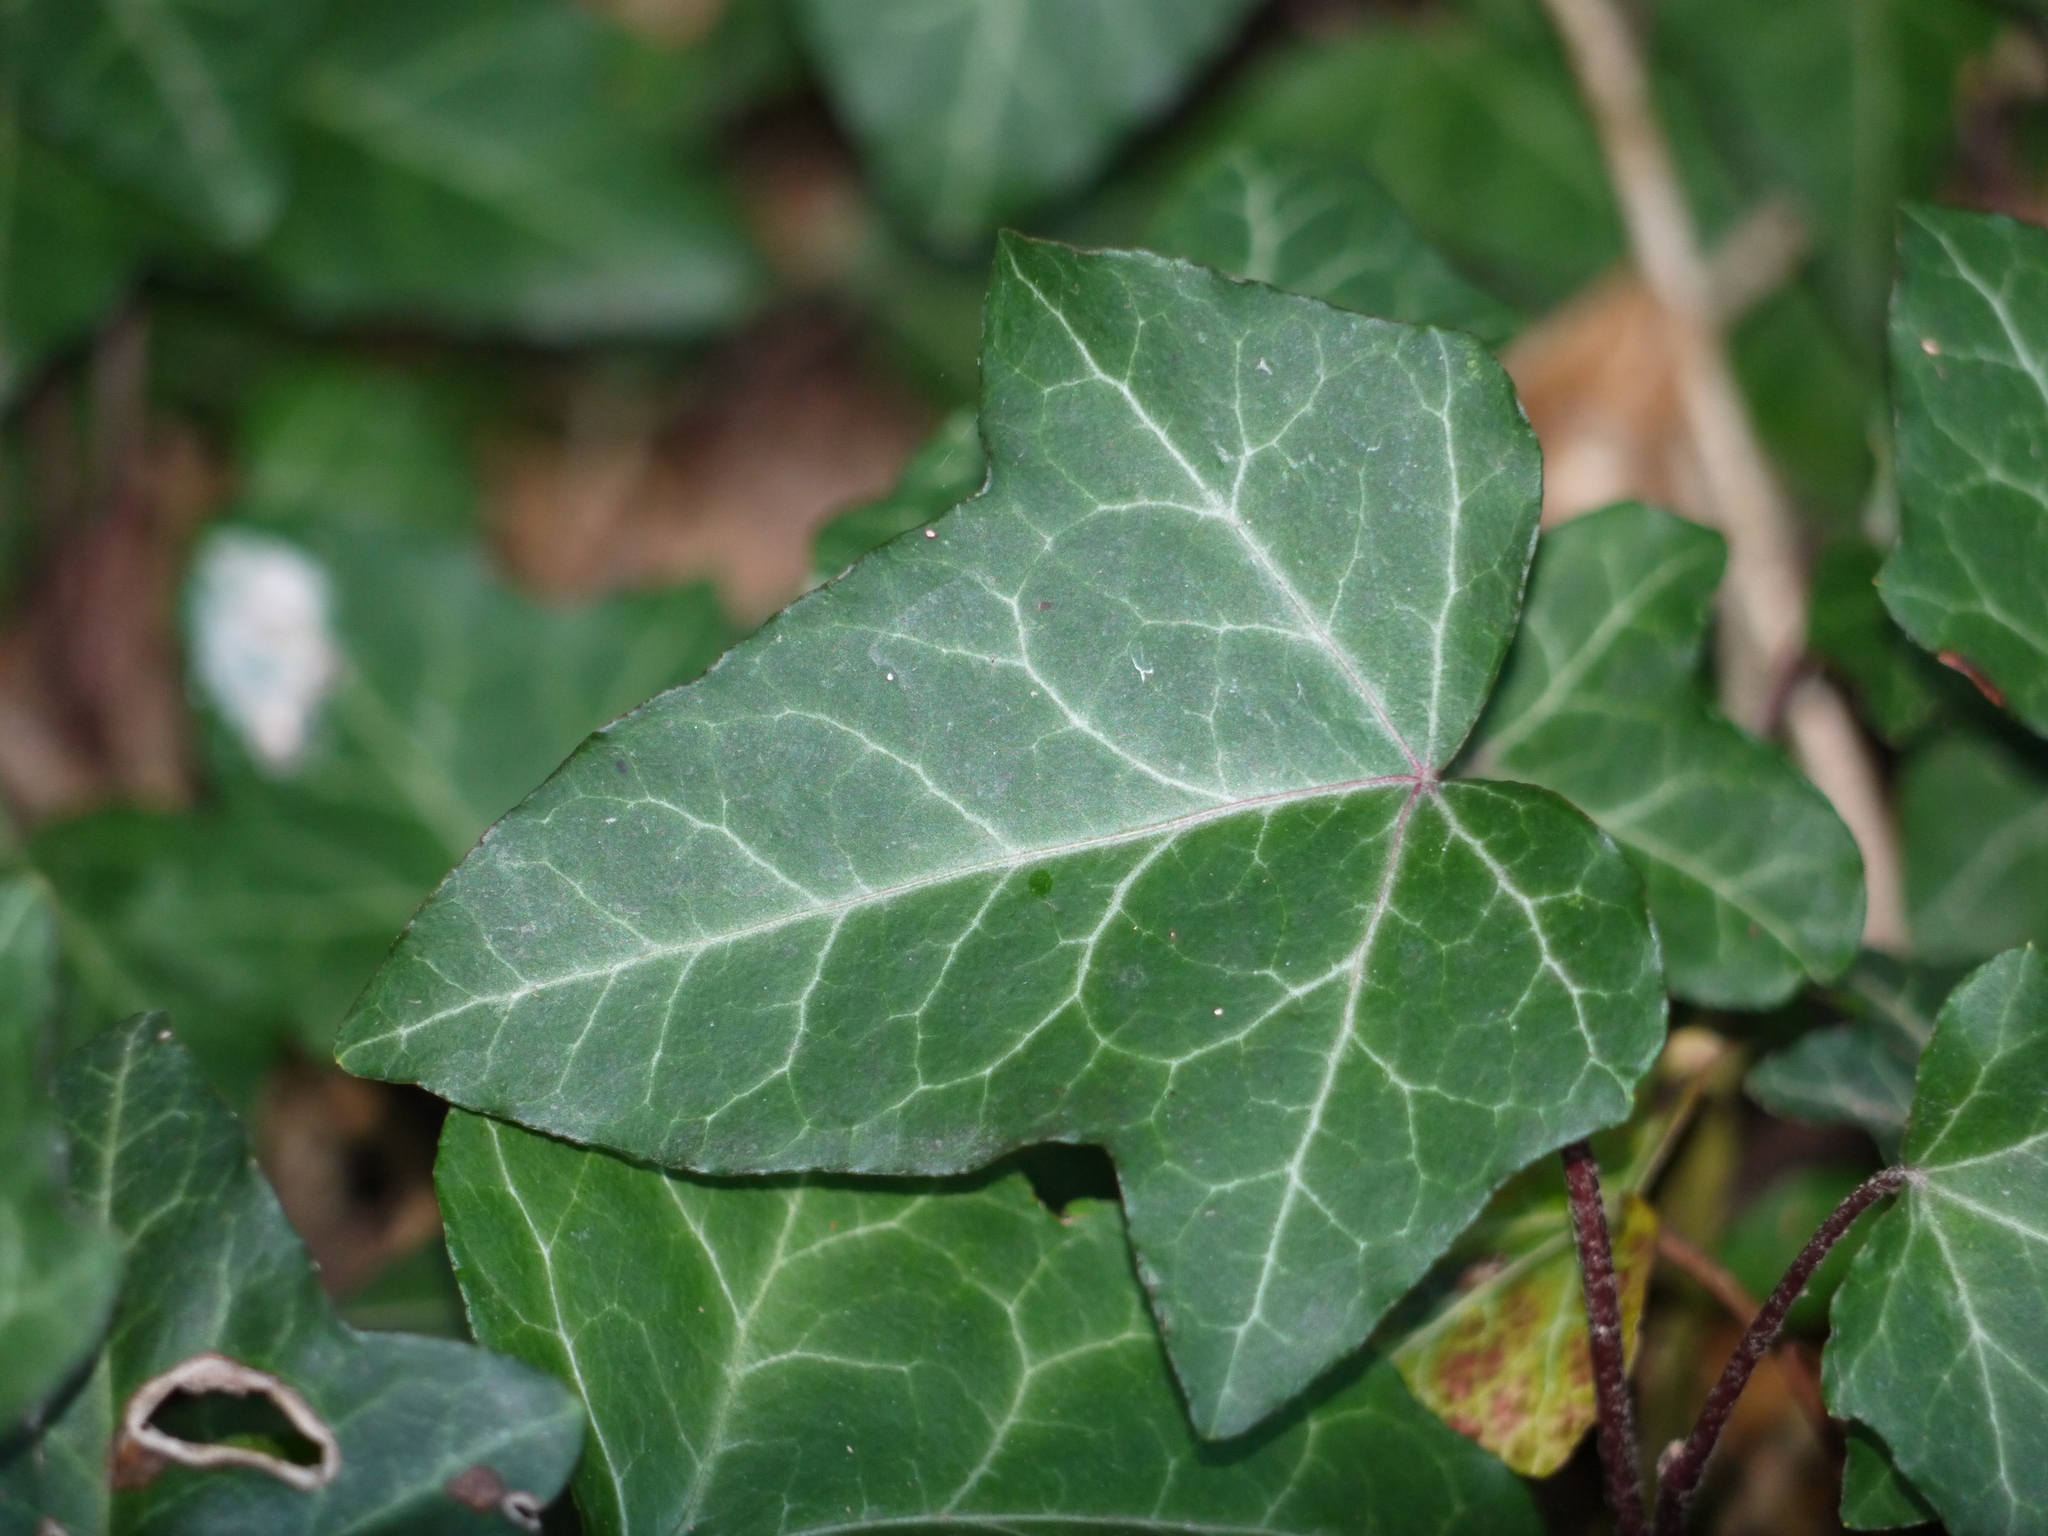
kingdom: Plantae
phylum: Tracheophyta
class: Magnoliopsida
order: Apiales
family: Araliaceae
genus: Hedera
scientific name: Hedera helix
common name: Ivy
